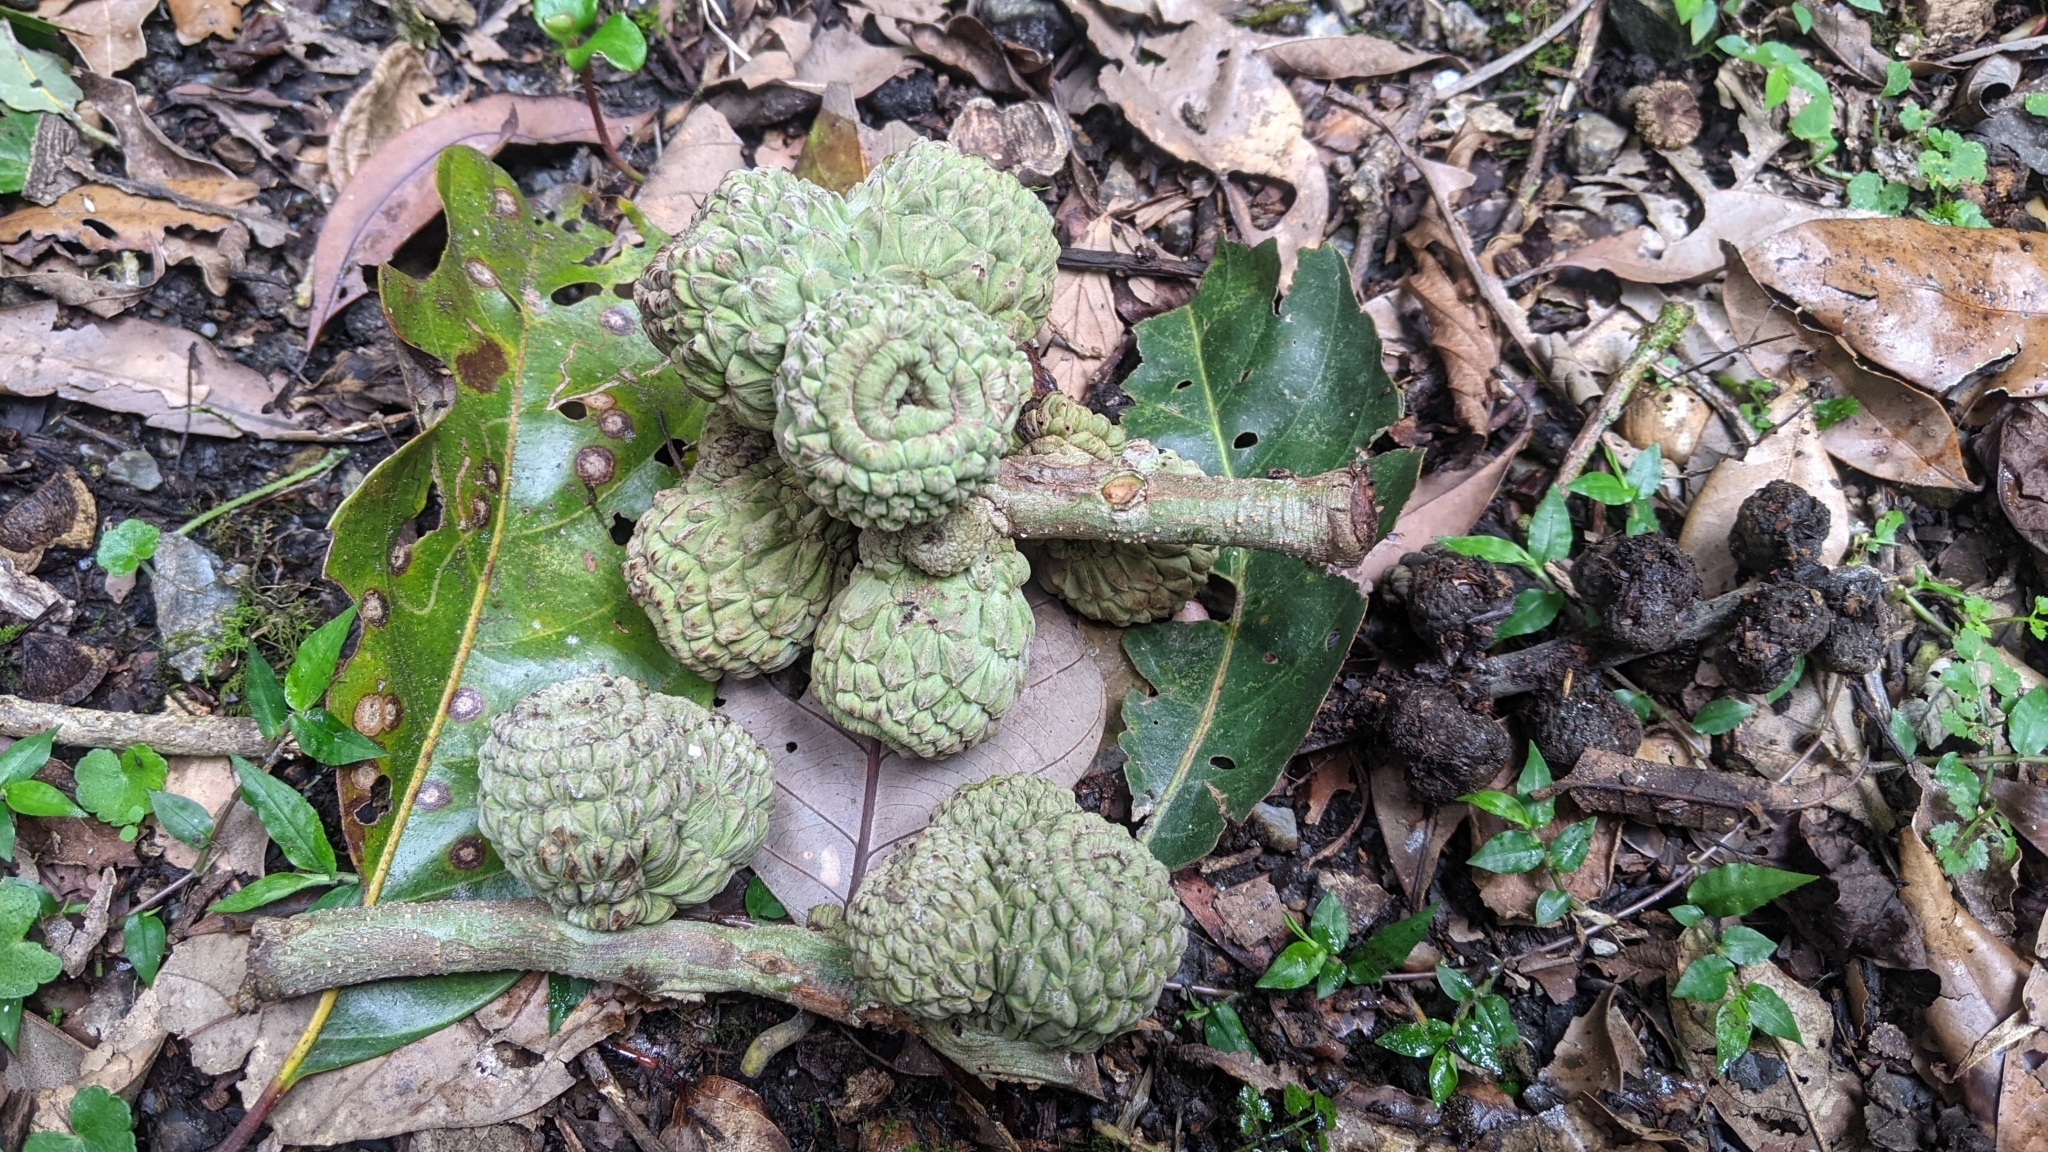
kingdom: Plantae
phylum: Tracheophyta
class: Magnoliopsida
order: Fagales
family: Fagaceae
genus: Lithocarpus
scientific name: Lithocarpus lepidocarpus
